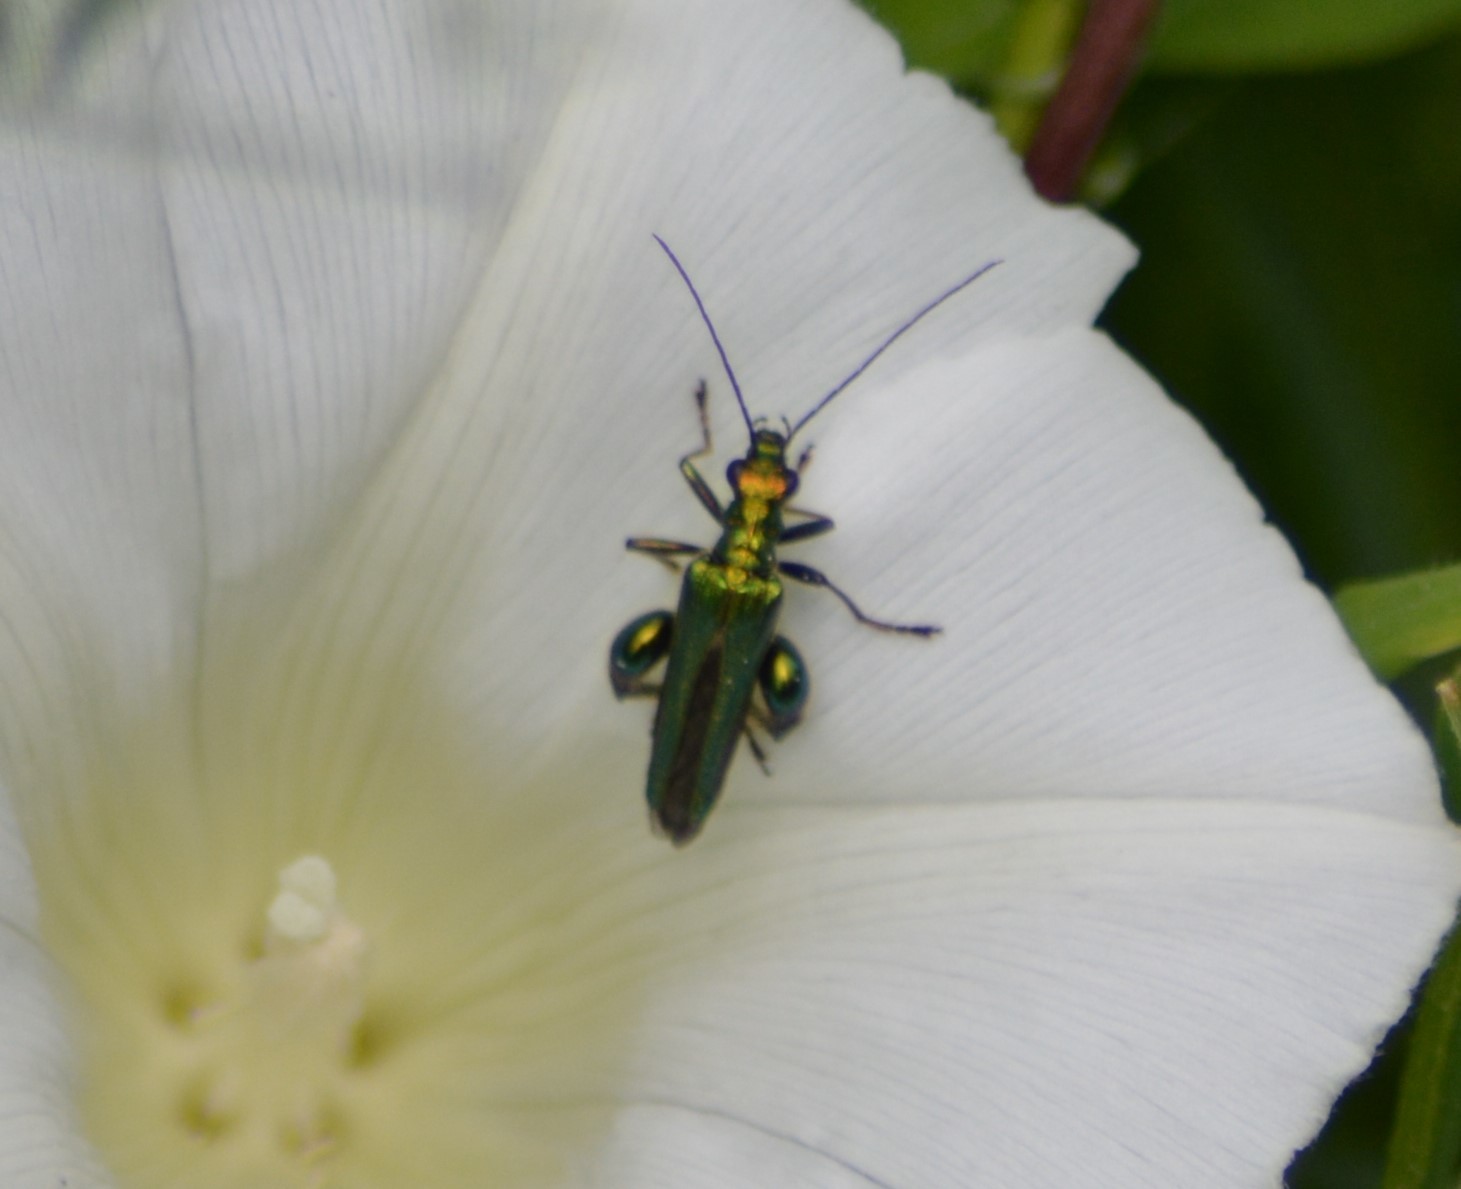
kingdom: Animalia
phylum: Arthropoda
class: Insecta
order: Coleoptera
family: Oedemeridae
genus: Oedemera
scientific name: Oedemera nobilis
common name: Swollen-thighed beetle
